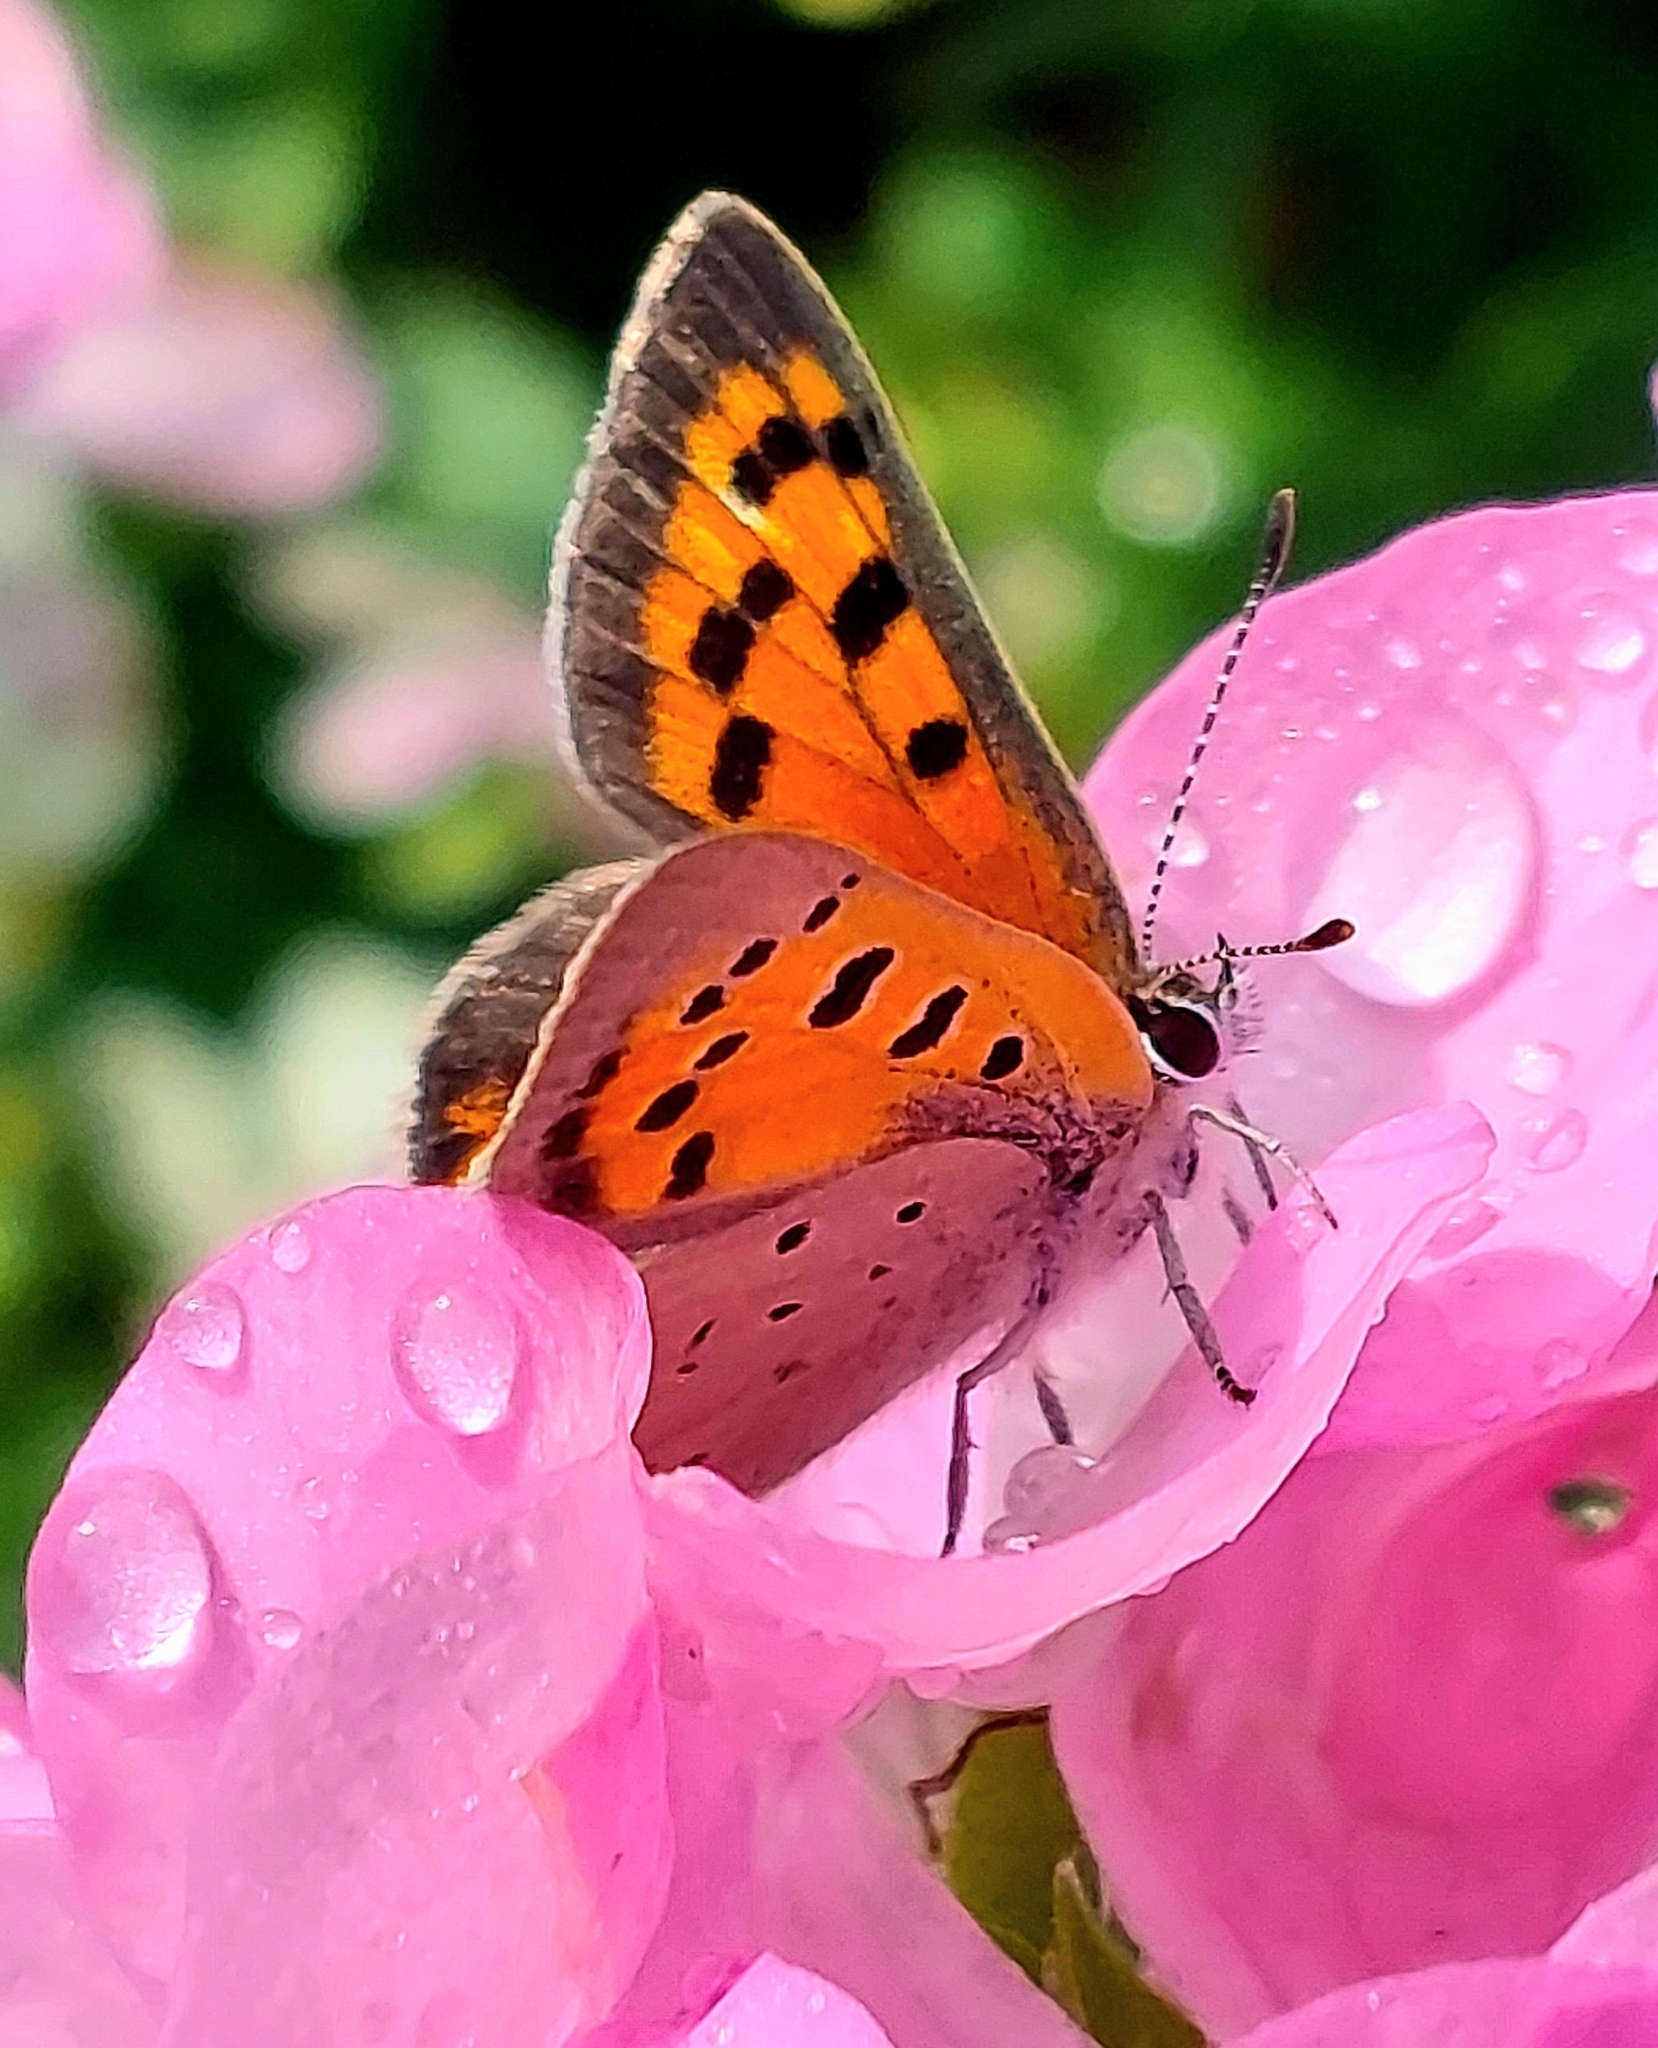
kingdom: Animalia
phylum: Arthropoda
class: Insecta
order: Lepidoptera
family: Lycaenidae
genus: Lycaena
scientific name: Lycaena hypophlaeas
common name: American copper
